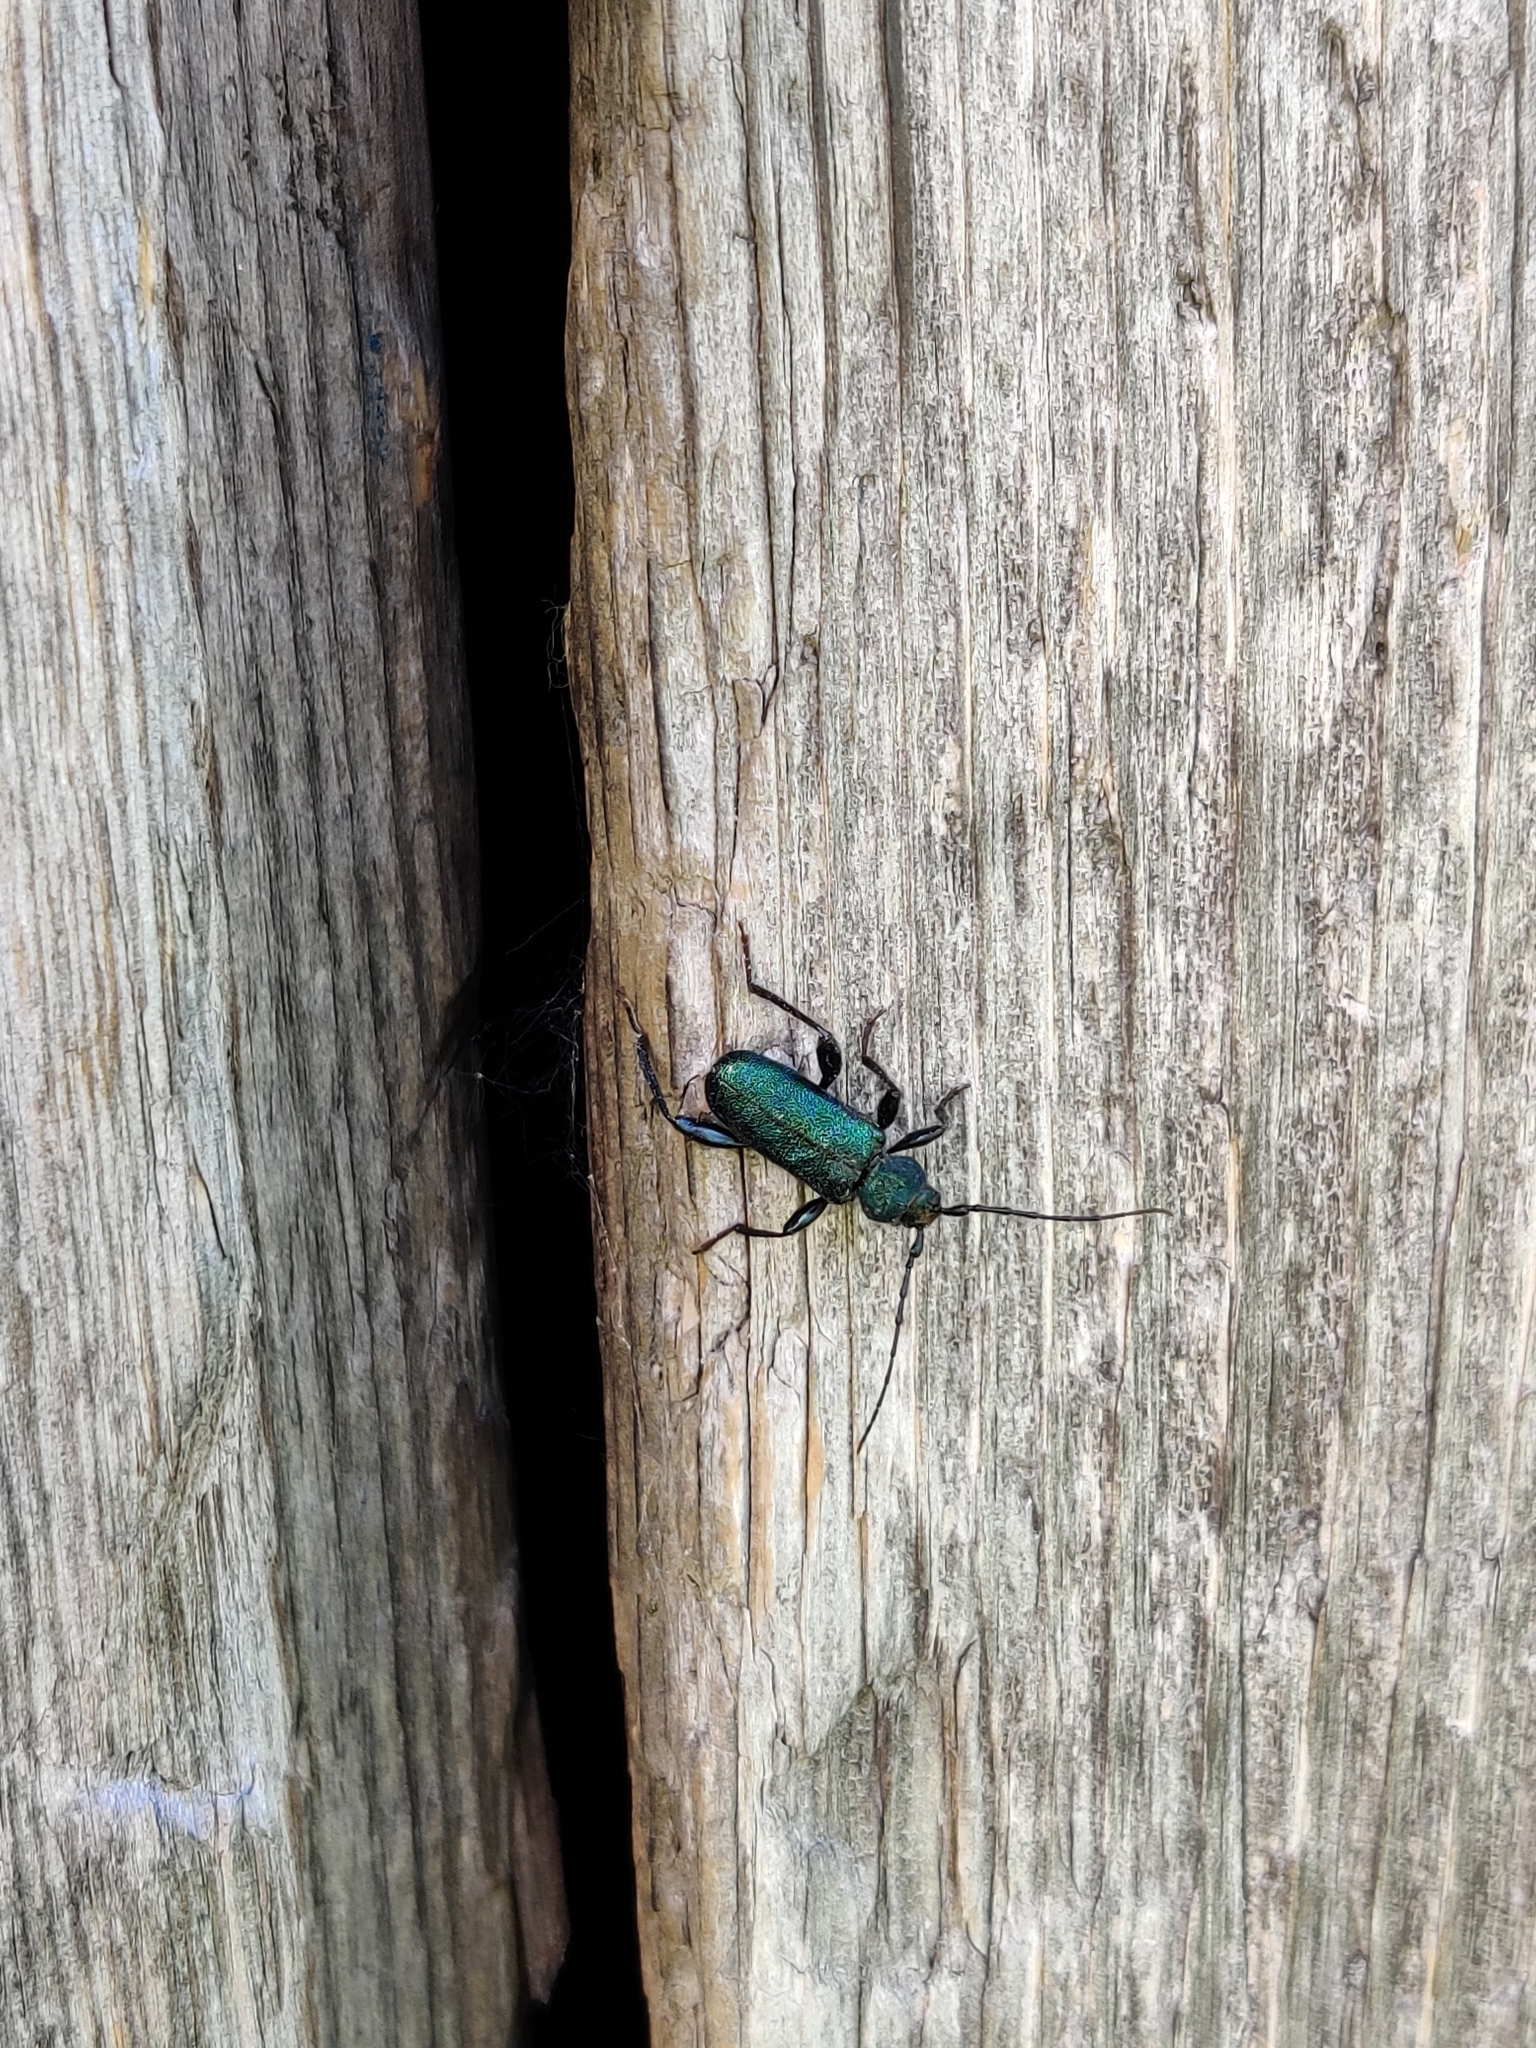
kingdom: Animalia
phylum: Arthropoda
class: Insecta
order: Coleoptera
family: Cerambycidae
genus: Callidium
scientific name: Callidium violaceum
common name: Violet tanbark beetle
